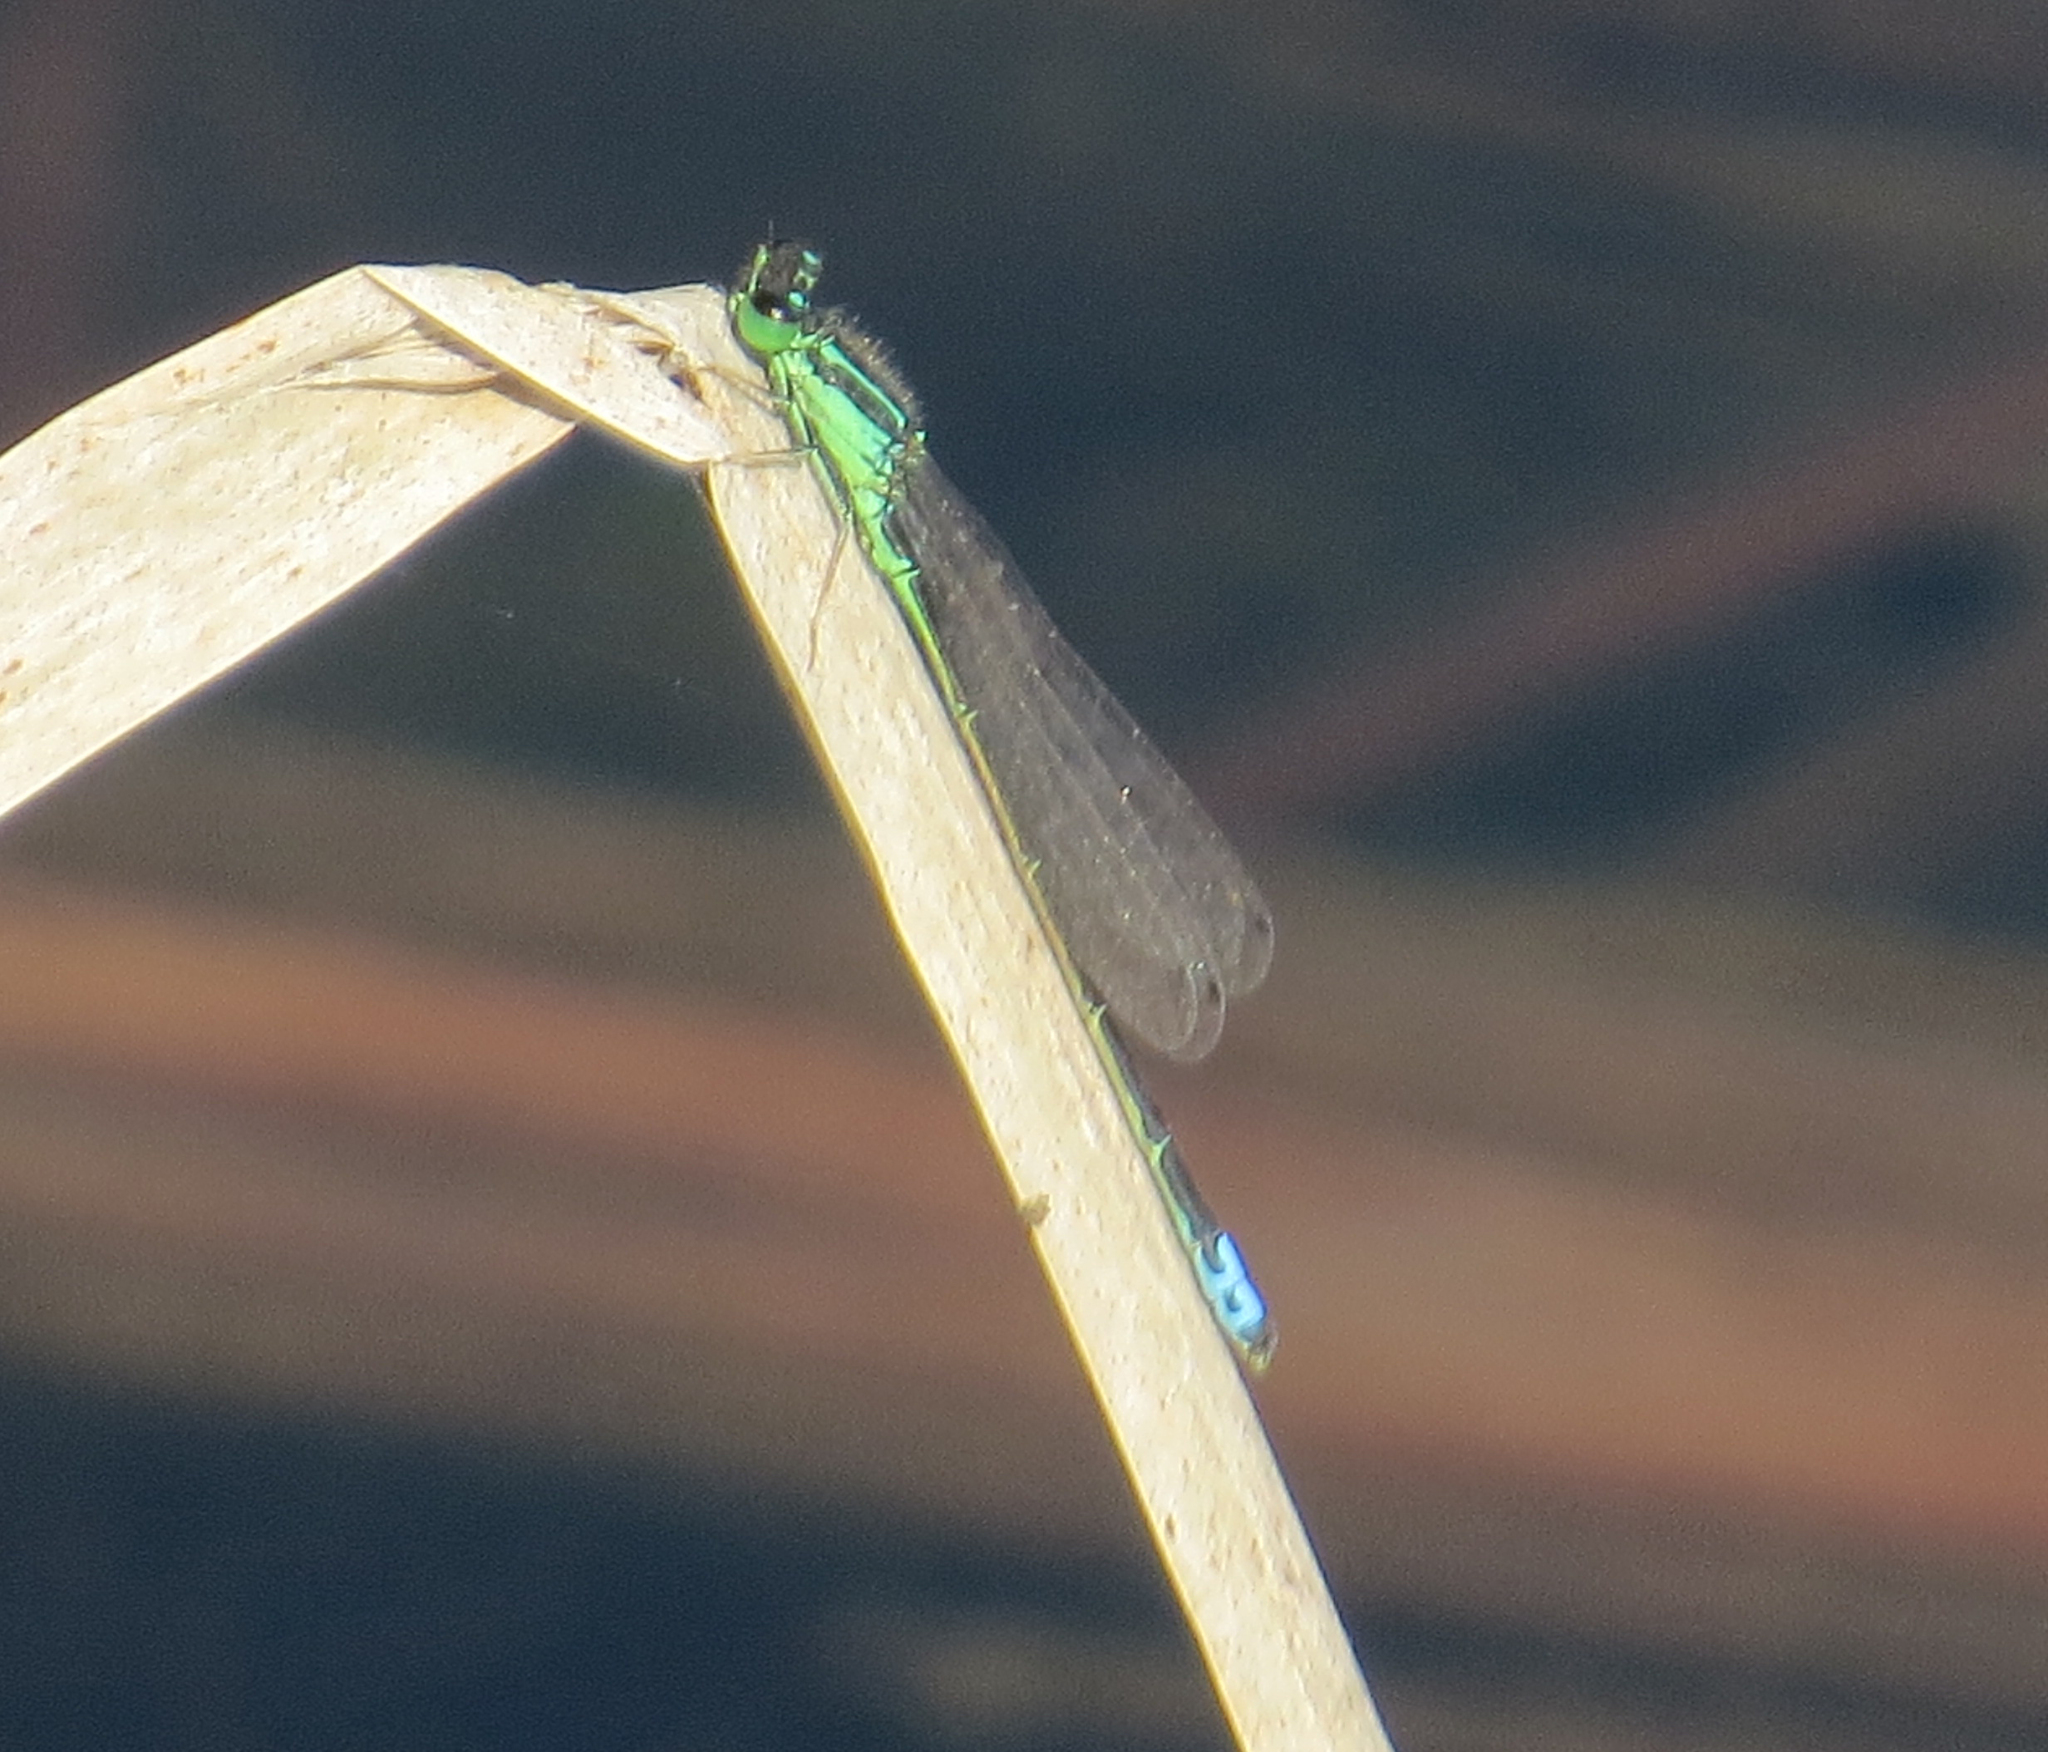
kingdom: Animalia
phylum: Arthropoda
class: Insecta
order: Odonata
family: Coenagrionidae
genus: Ischnura
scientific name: Ischnura verticalis
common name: Eastern forktail
